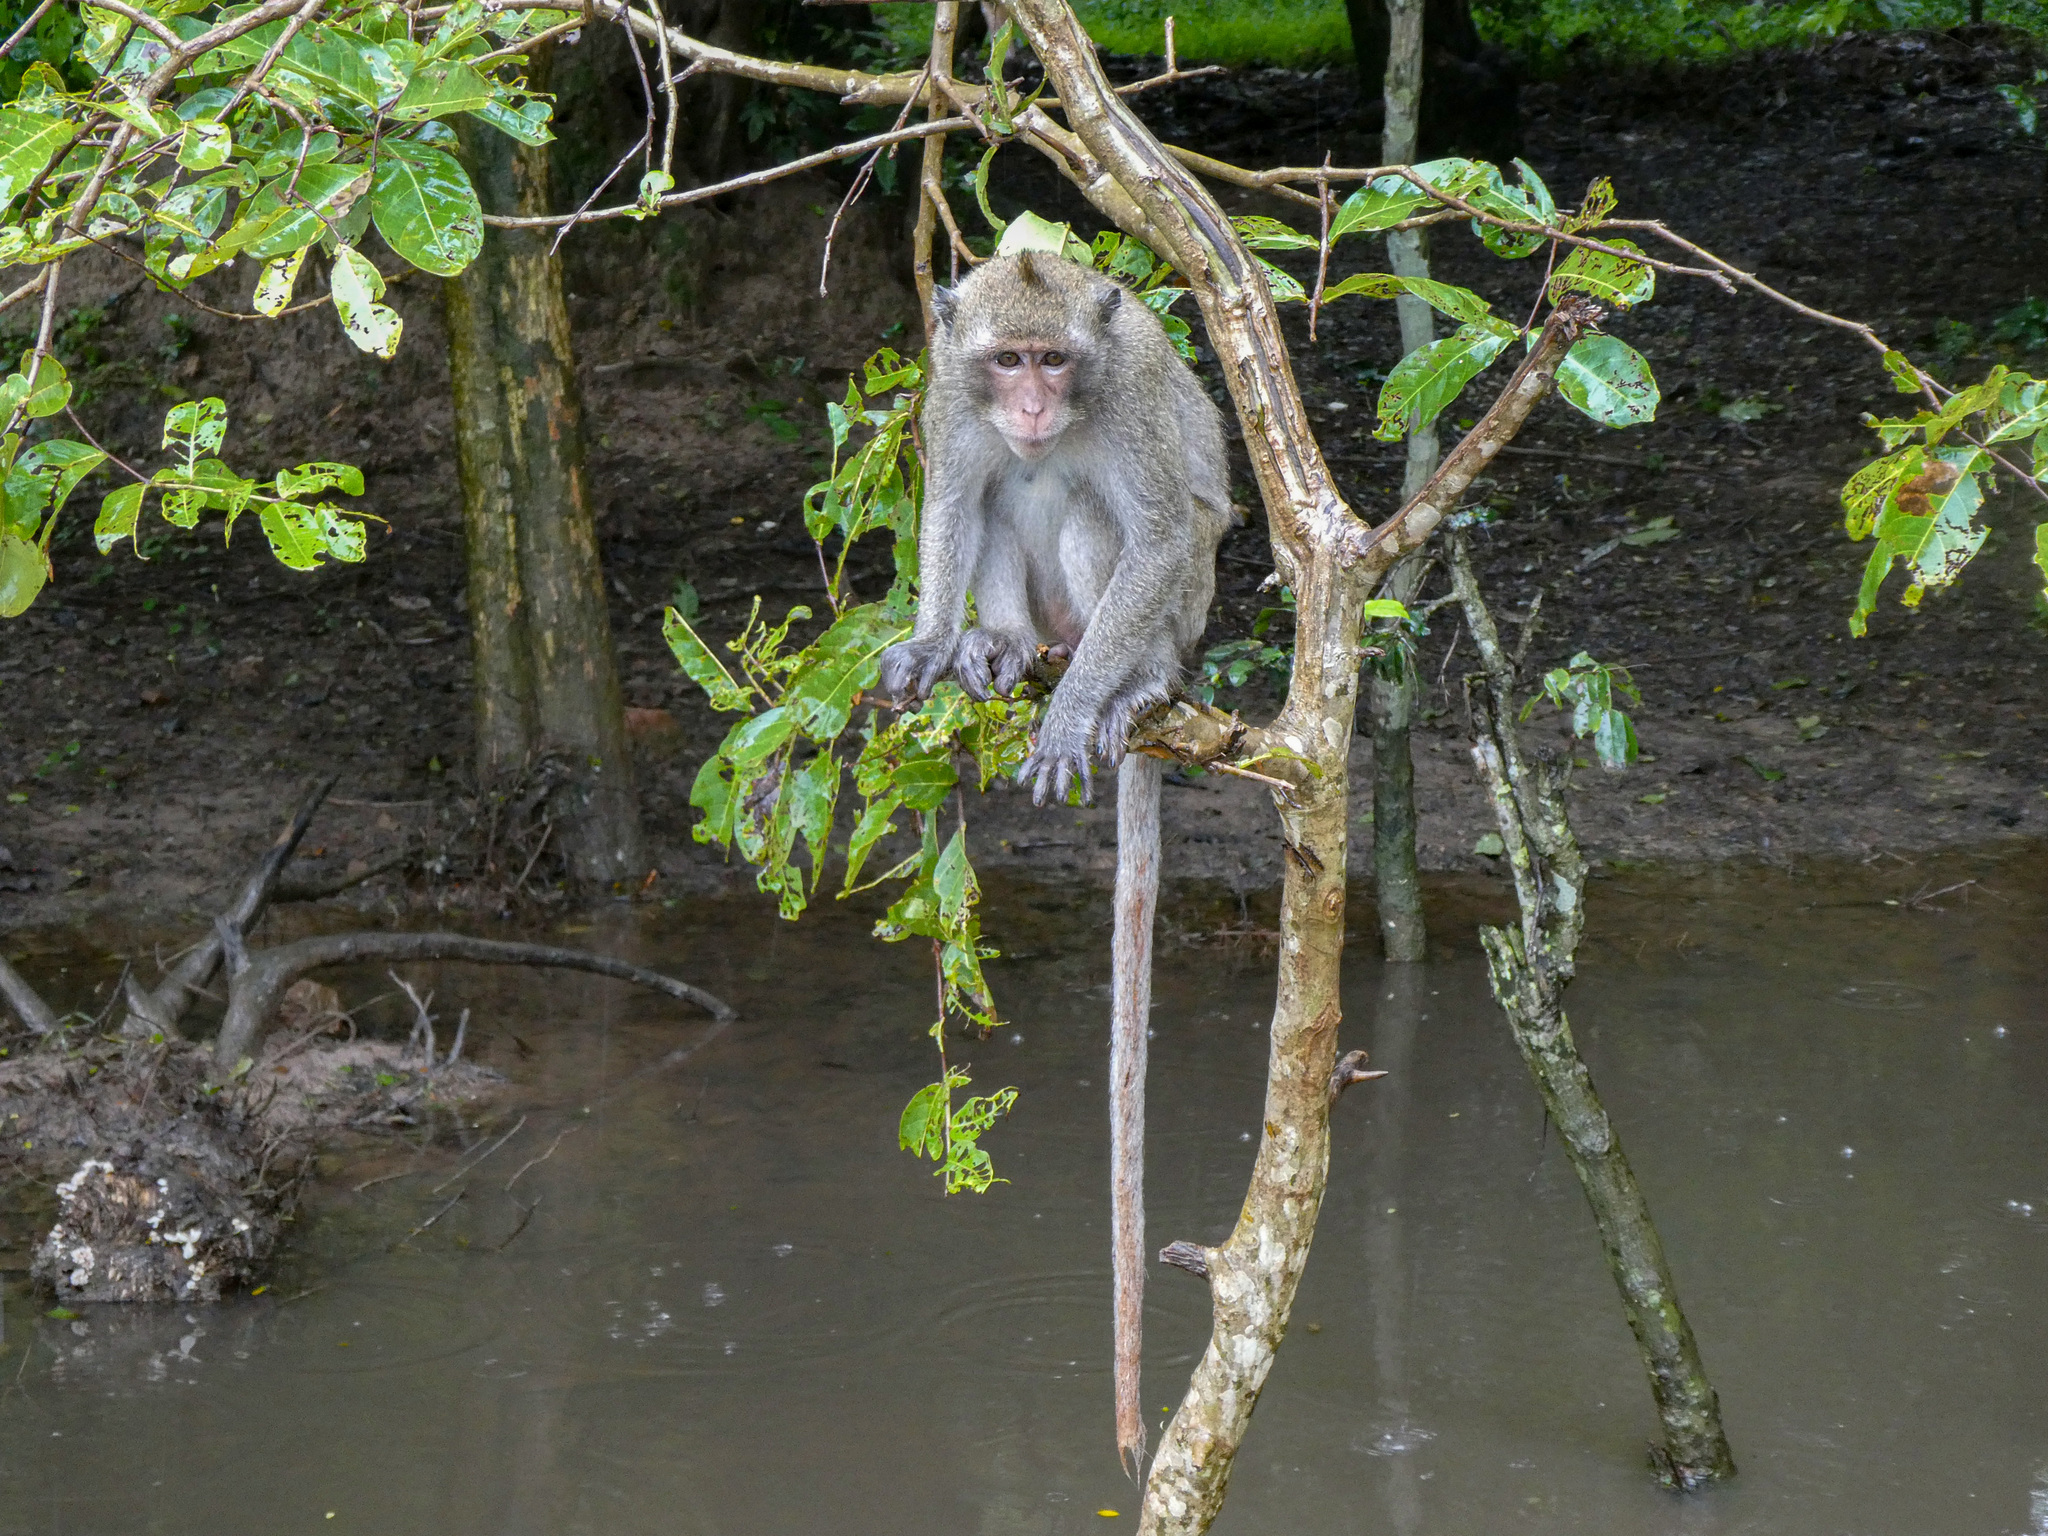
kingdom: Animalia
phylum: Chordata
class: Mammalia
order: Primates
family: Cercopithecidae
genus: Macaca
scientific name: Macaca fascicularis
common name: Crab-eating macaque
